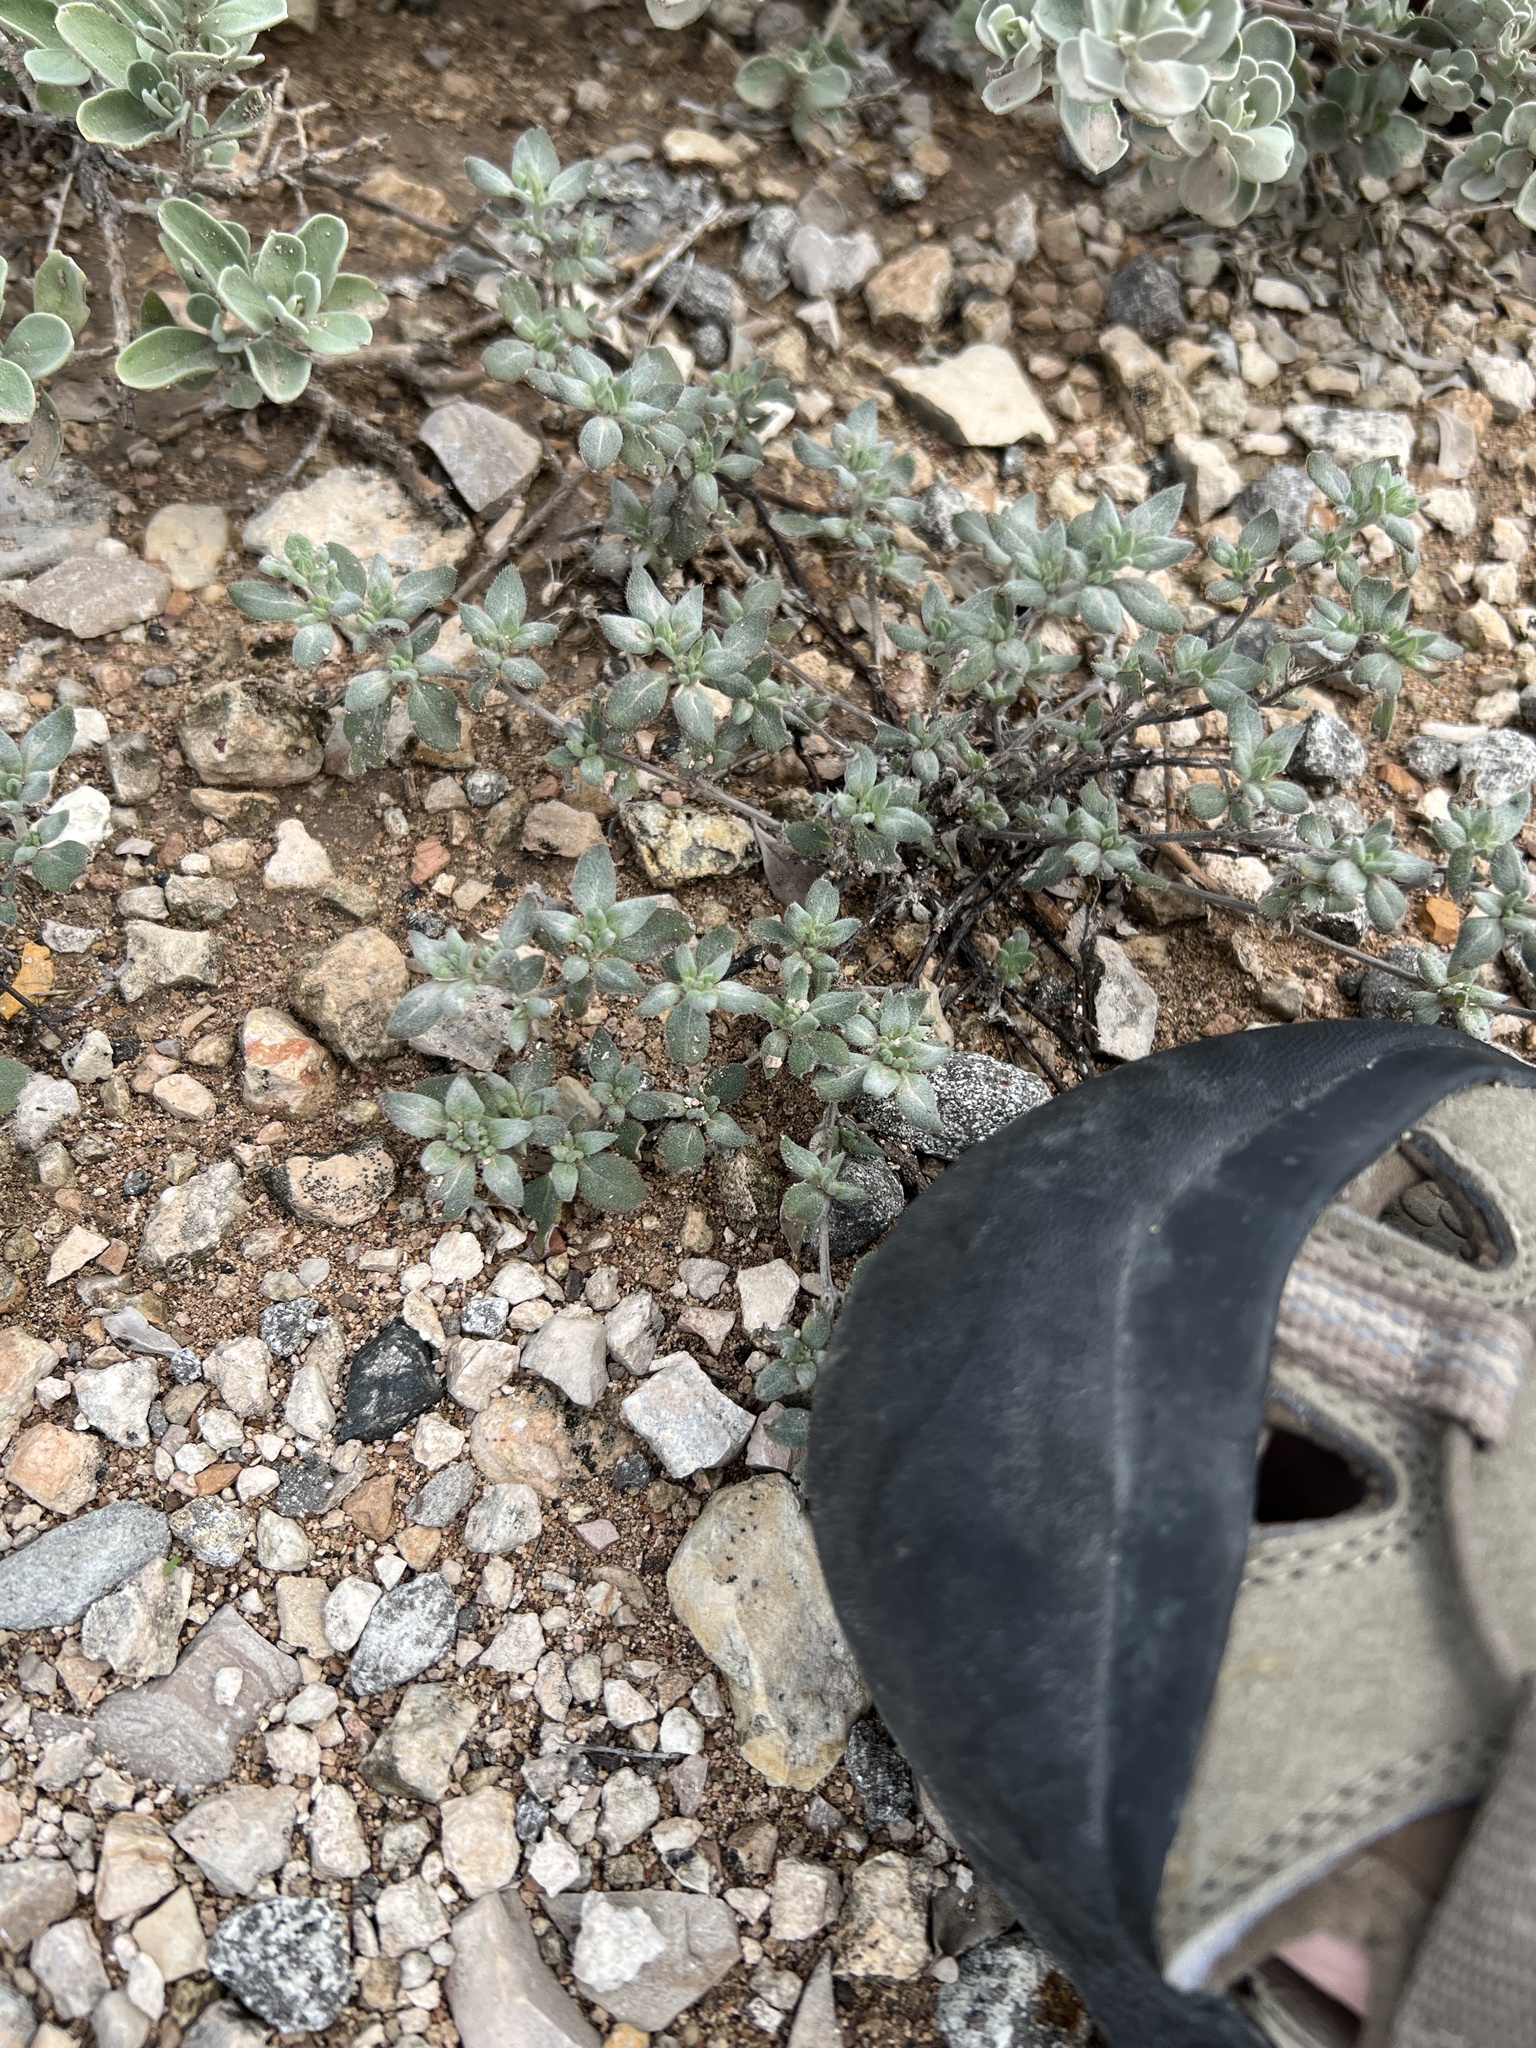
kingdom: Plantae
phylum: Tracheophyta
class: Magnoliopsida
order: Boraginales
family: Ehretiaceae
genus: Tiquilia
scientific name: Tiquilia canescens
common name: Hairy tiquilia
